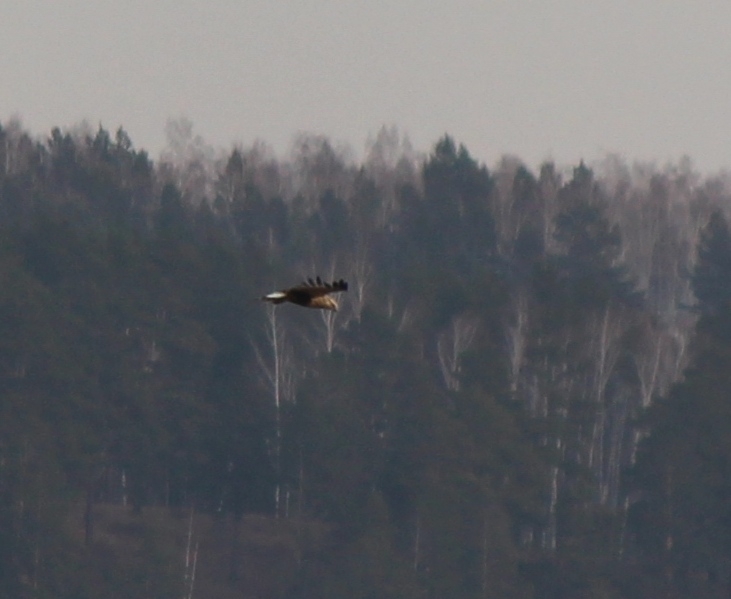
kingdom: Animalia
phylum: Chordata
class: Aves
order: Accipitriformes
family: Accipitridae
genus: Buteo
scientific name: Buteo lagopus
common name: Rough-legged buzzard
